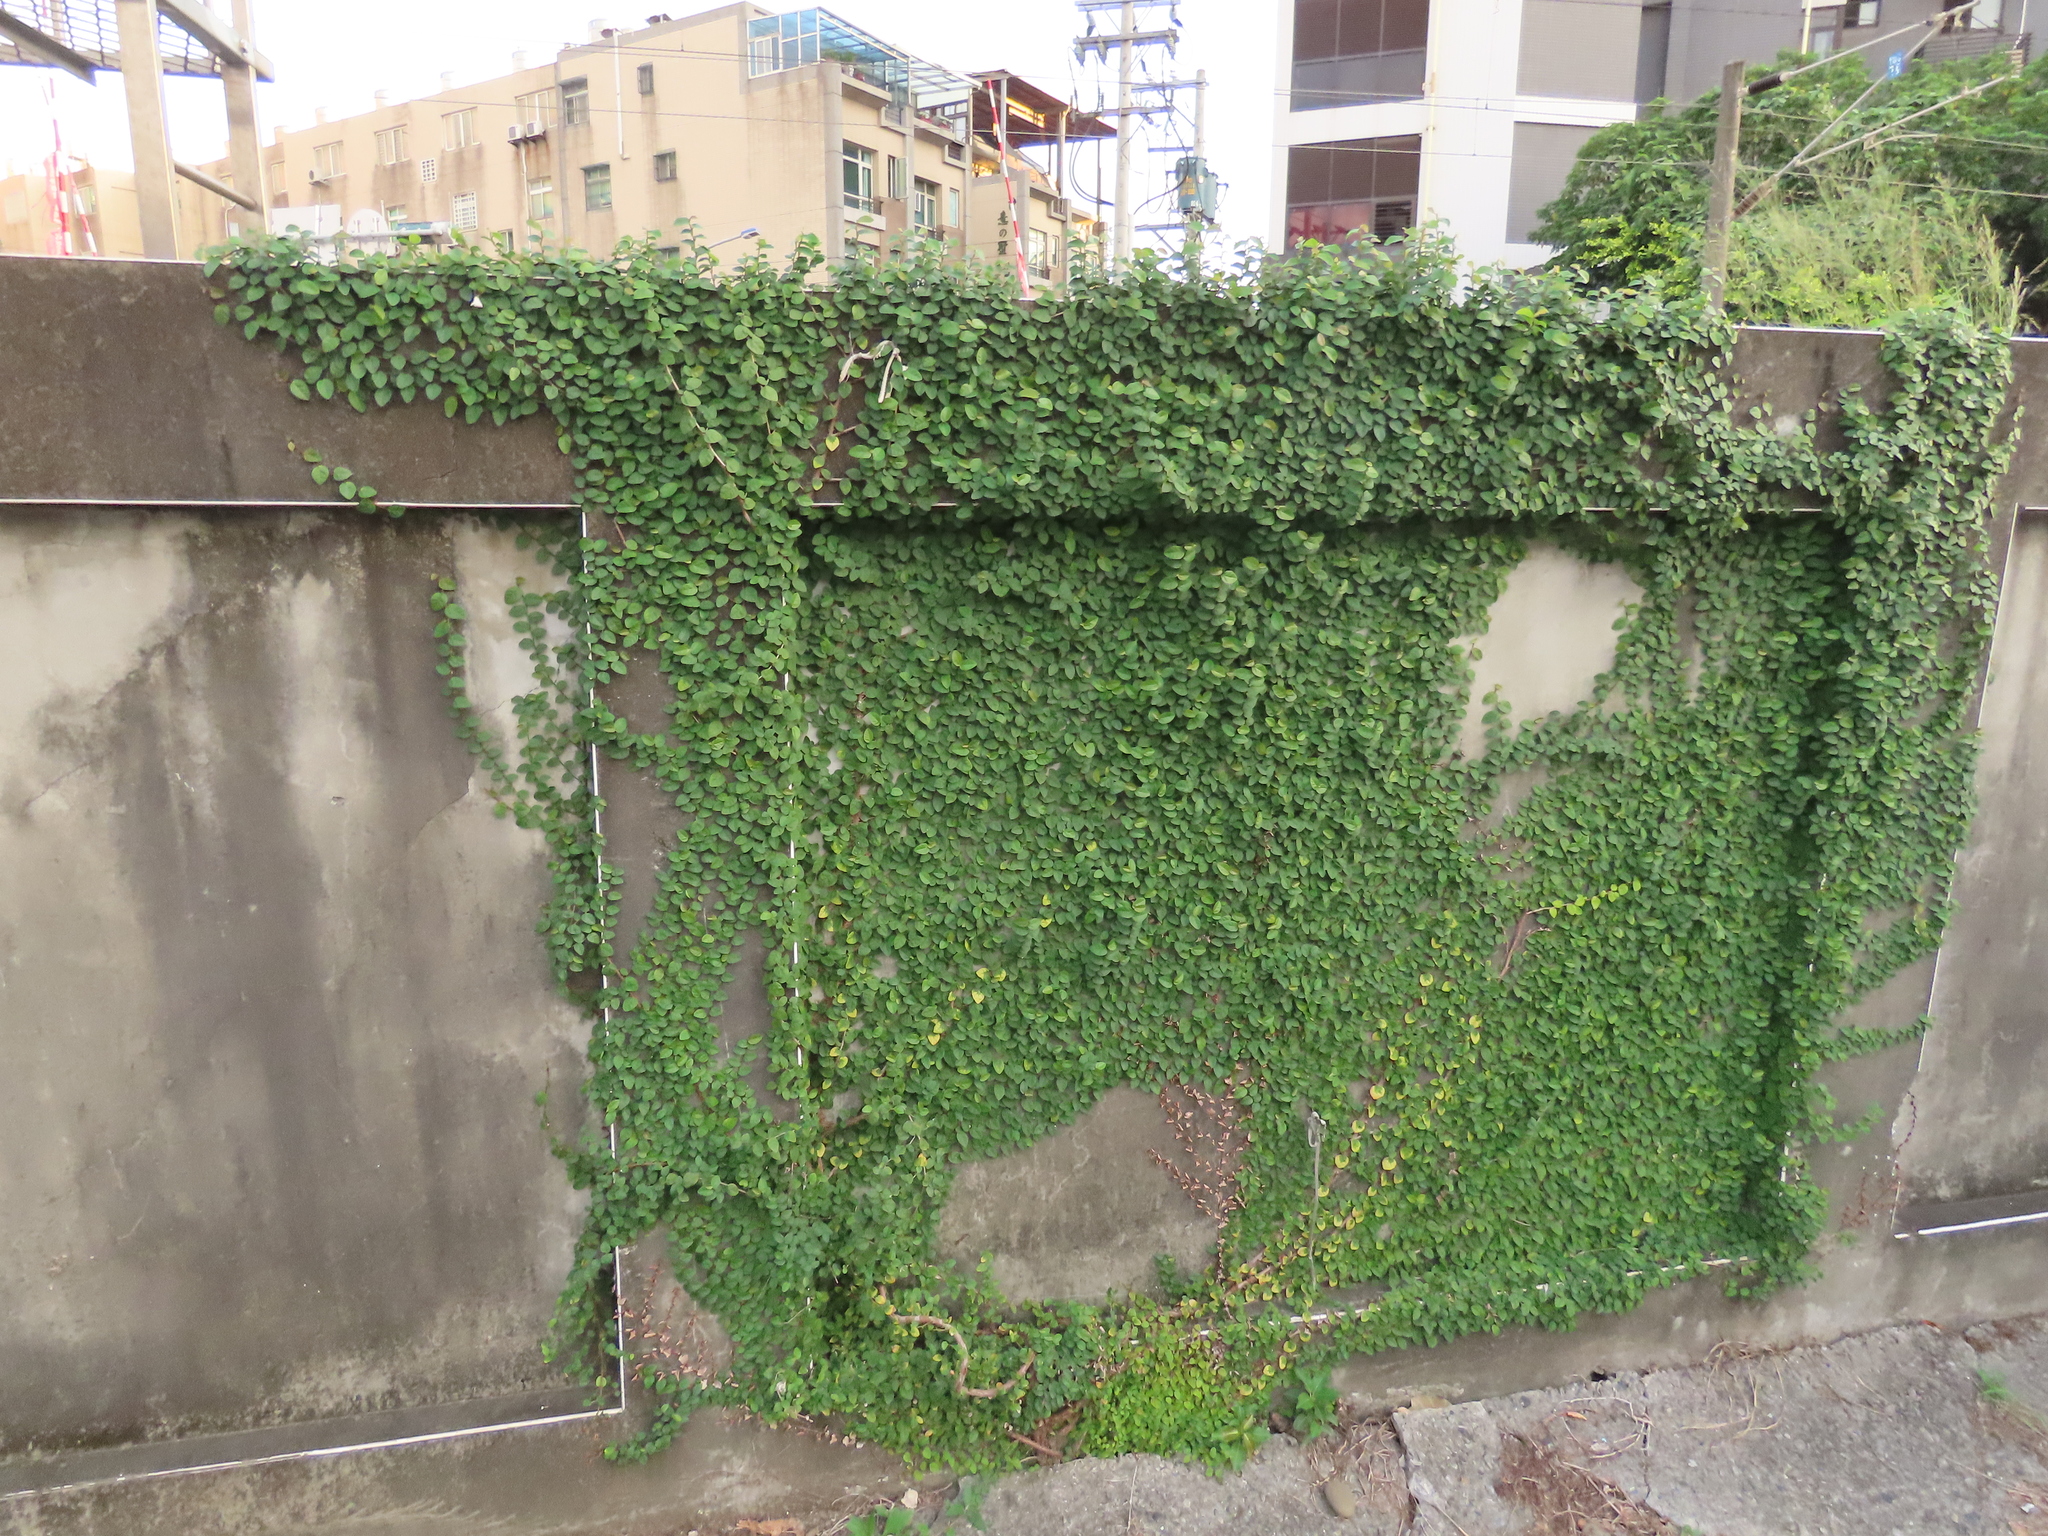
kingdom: Plantae
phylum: Tracheophyta
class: Magnoliopsida
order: Rosales
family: Moraceae
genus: Ficus
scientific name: Ficus pumila
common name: Climbingfig
